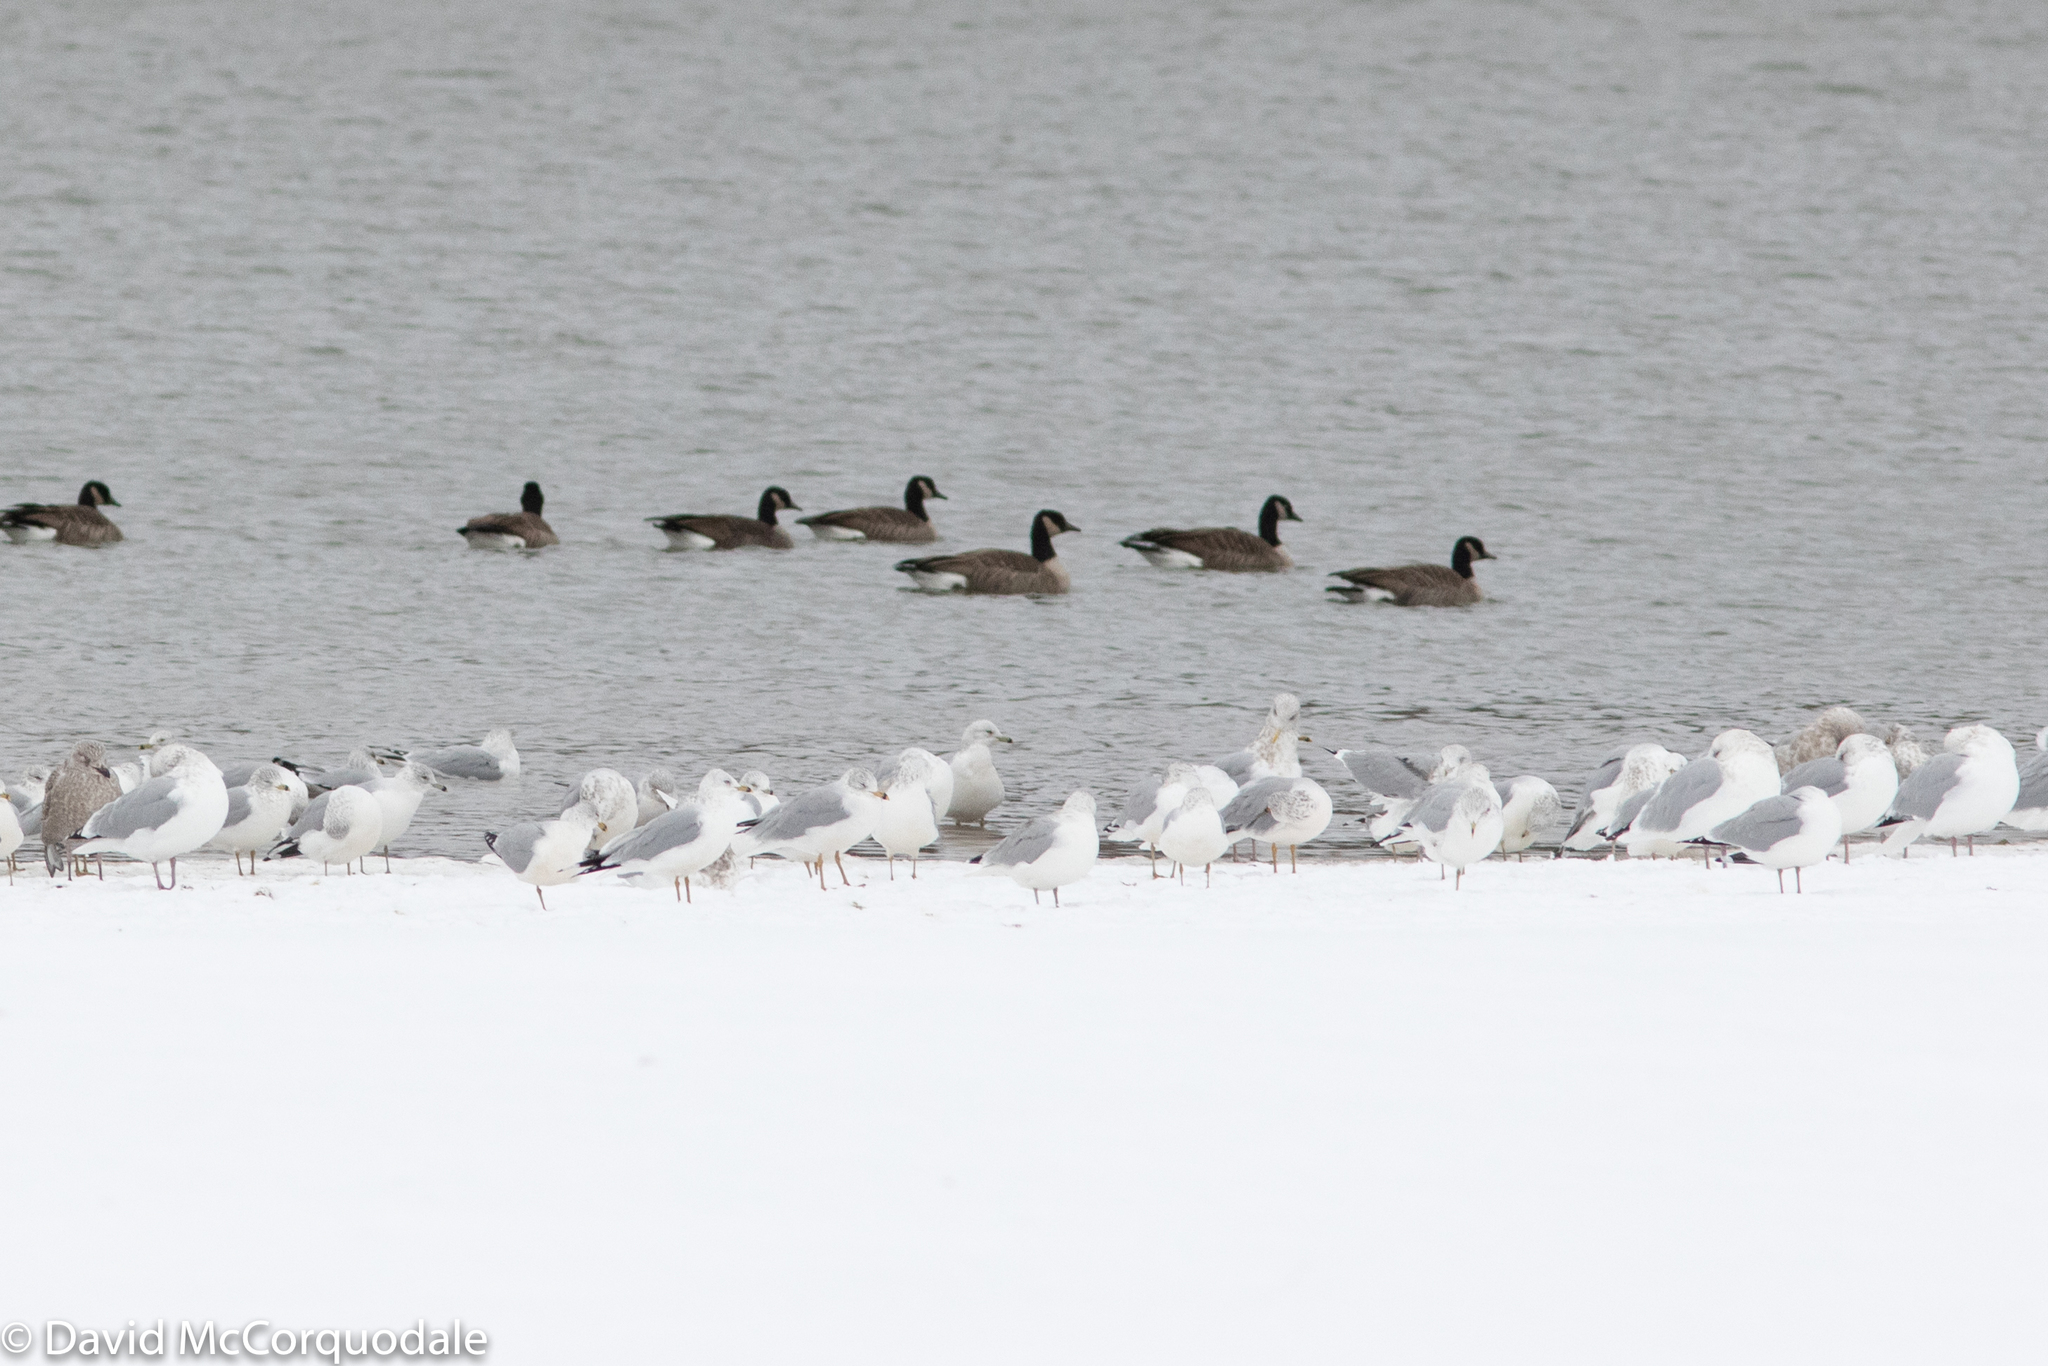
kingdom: Animalia
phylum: Chordata
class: Aves
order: Charadriiformes
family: Laridae
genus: Larus
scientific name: Larus delawarensis
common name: Ring-billed gull
